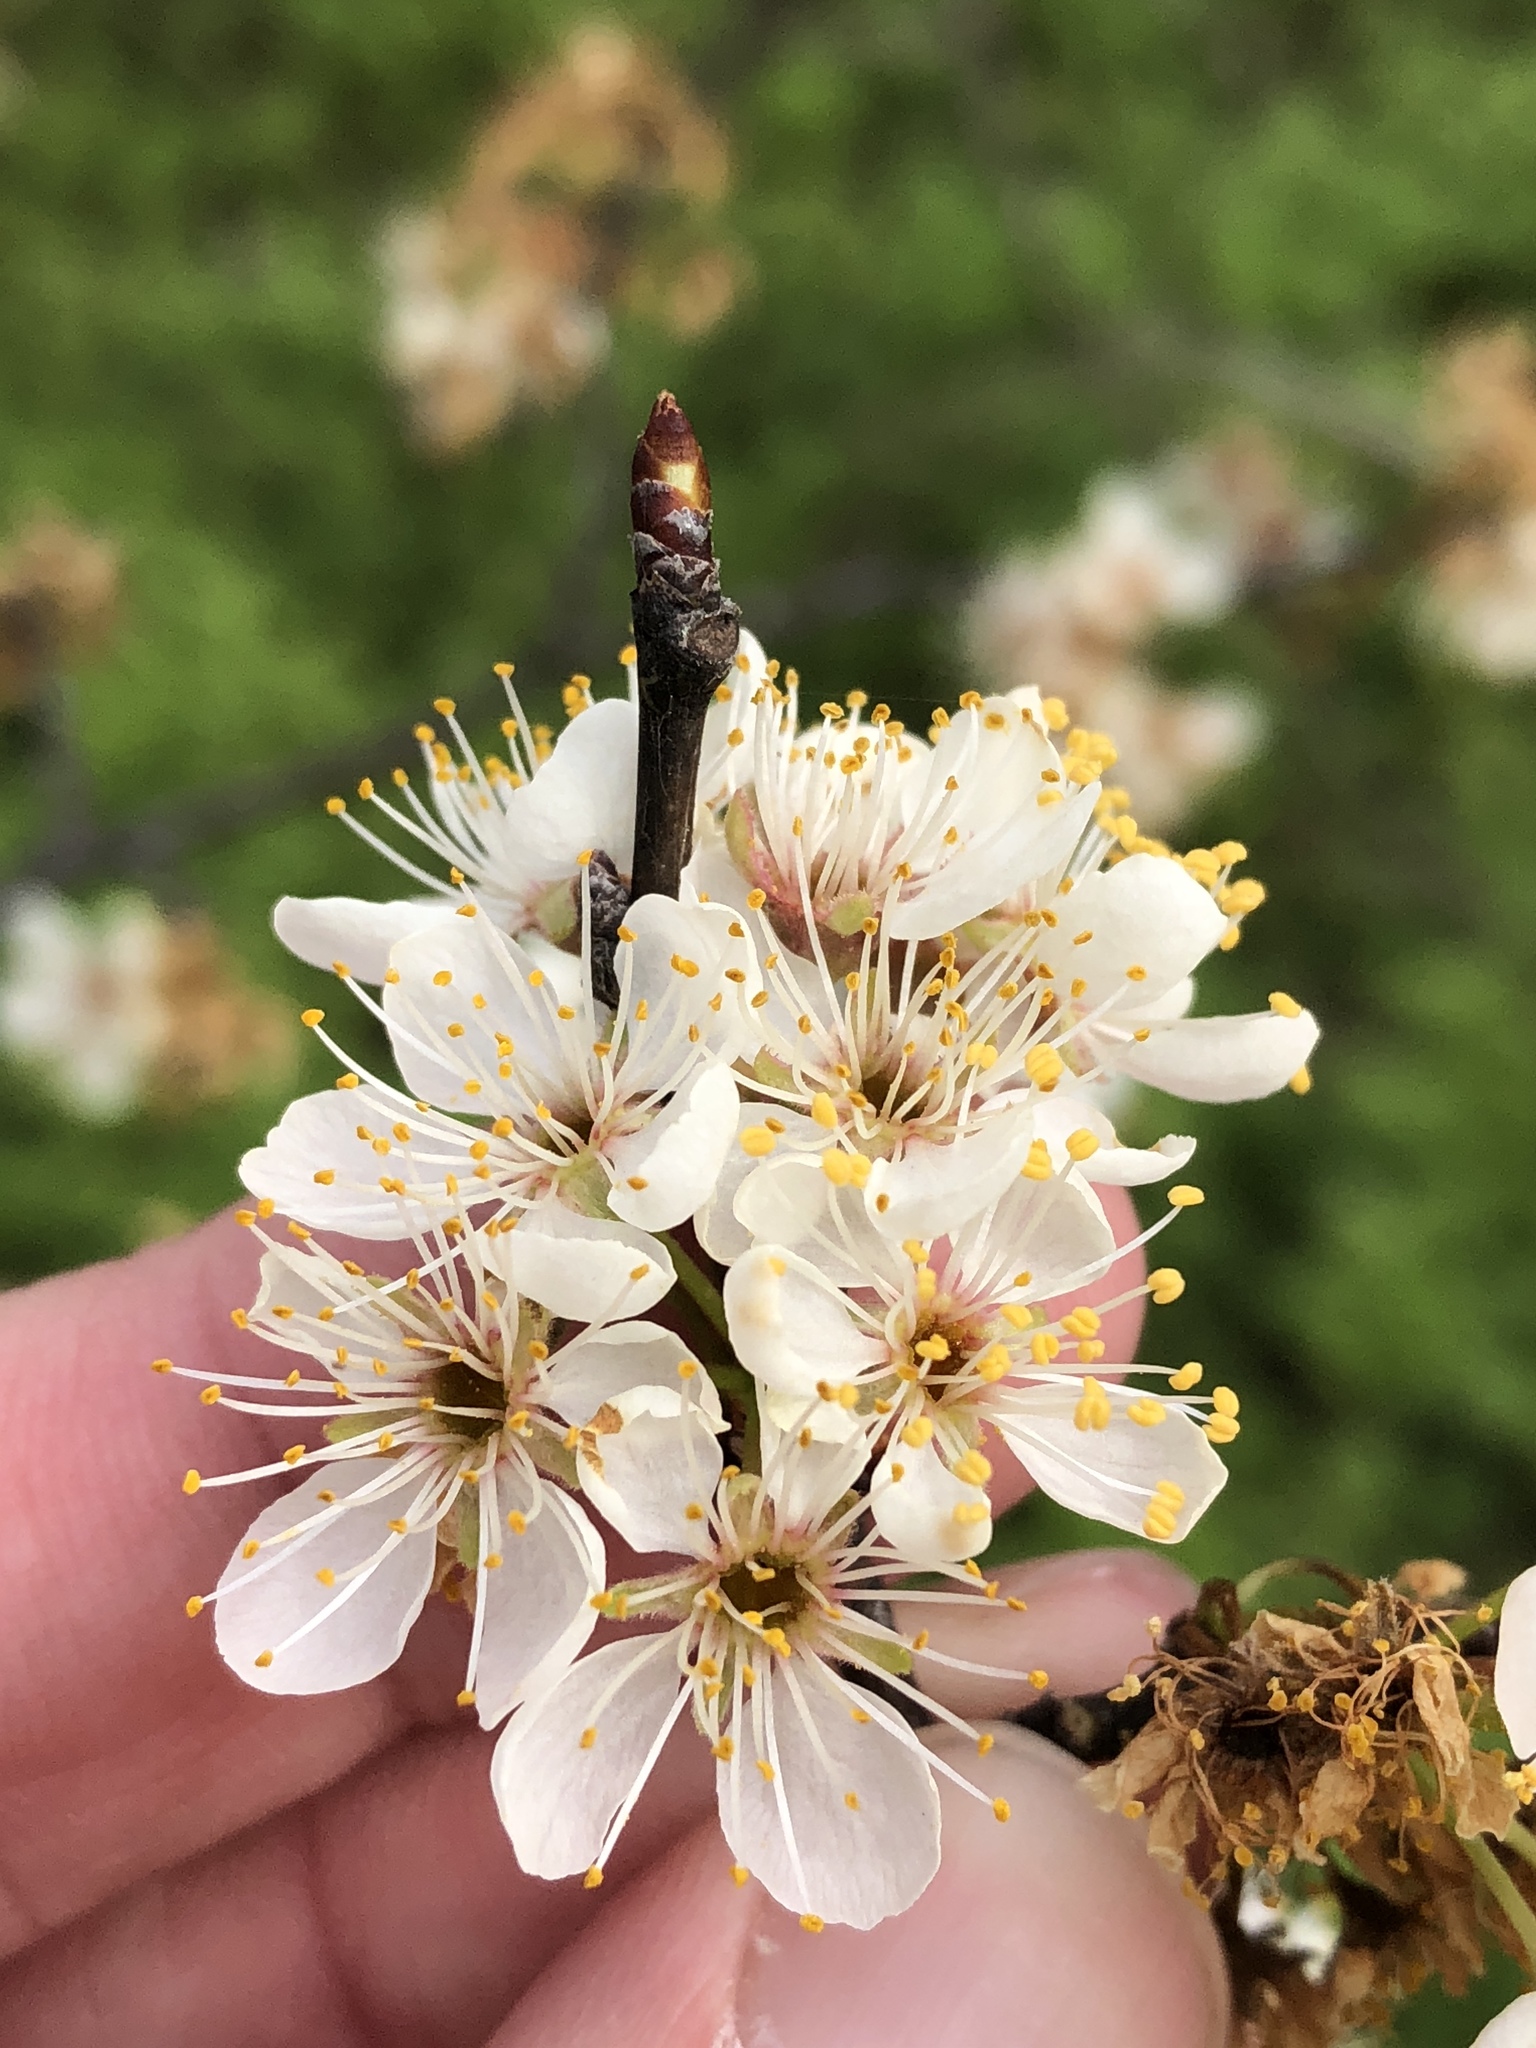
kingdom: Plantae
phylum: Tracheophyta
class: Magnoliopsida
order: Rosales
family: Rosaceae
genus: Prunus
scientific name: Prunus mexicana
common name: Mexican plum
